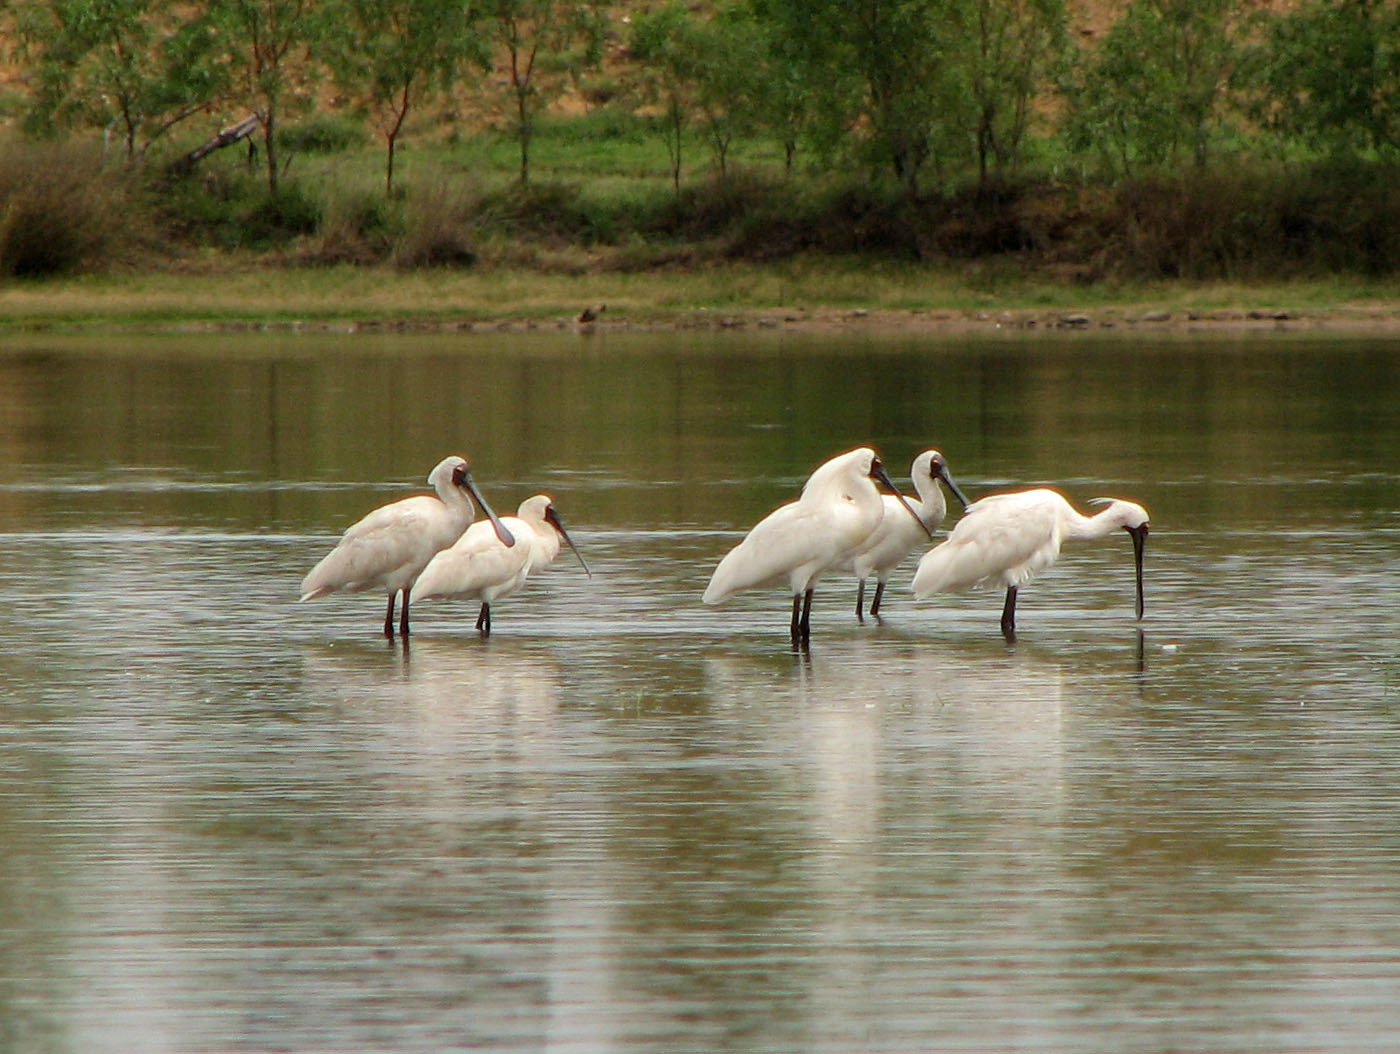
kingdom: Animalia
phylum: Chordata
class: Aves
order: Pelecaniformes
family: Threskiornithidae
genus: Platalea
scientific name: Platalea regia
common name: Royal spoonbill
